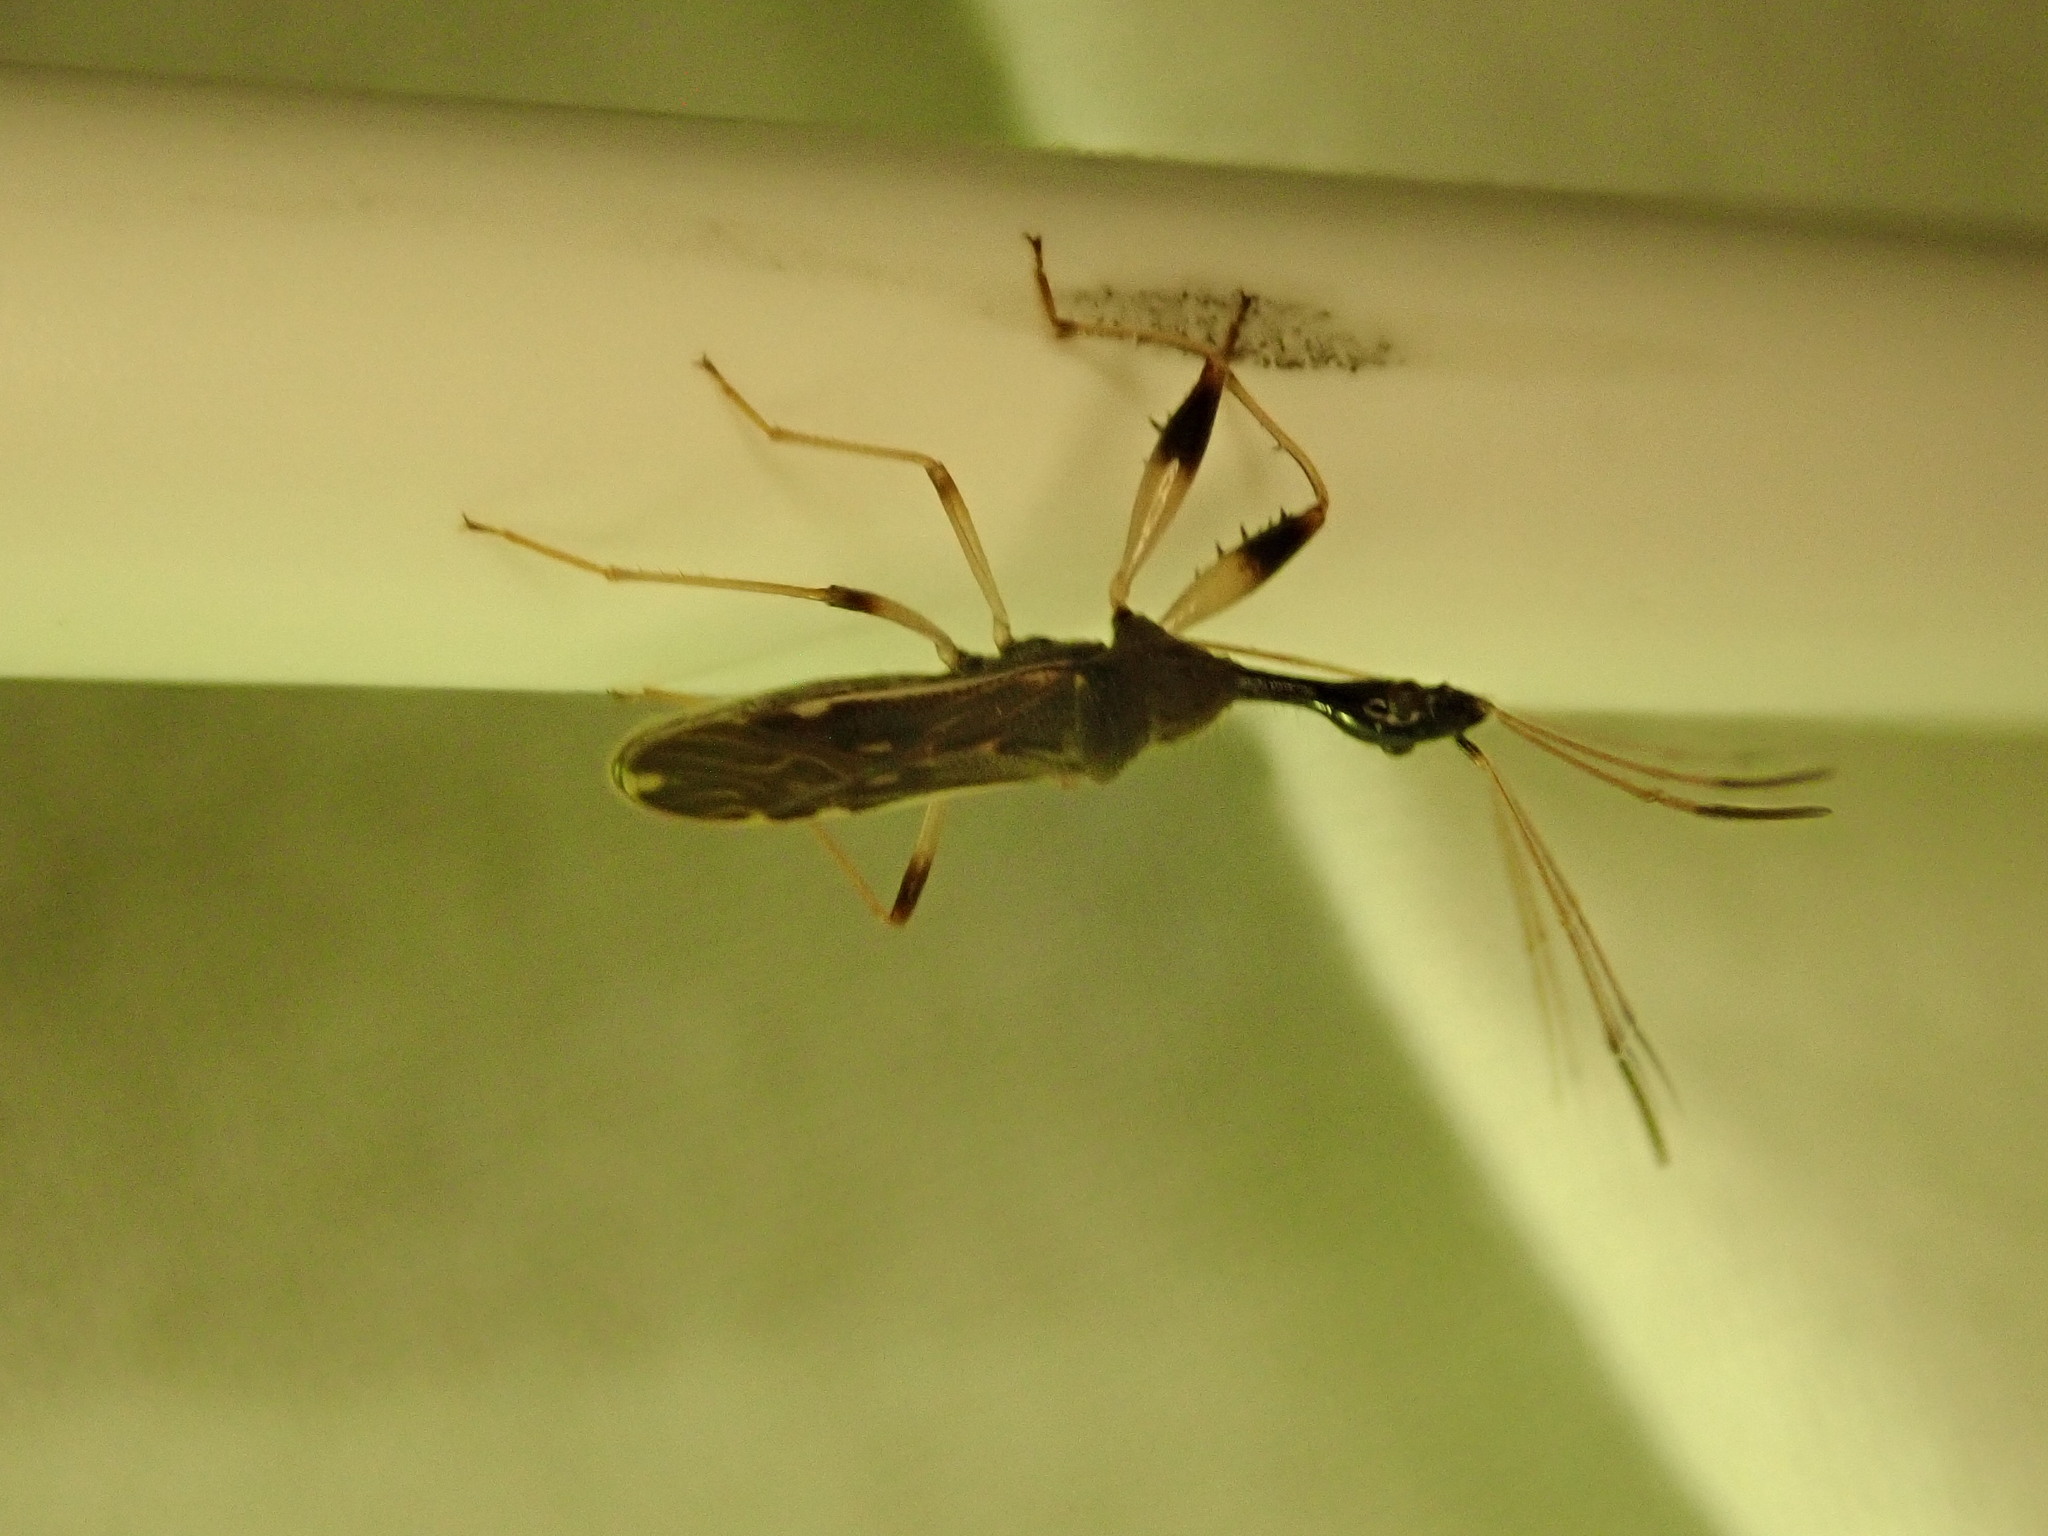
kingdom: Animalia
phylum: Arthropoda
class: Insecta
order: Hemiptera
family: Rhyparochromidae
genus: Myodocha
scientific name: Myodocha serripes
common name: Long-necked seed bug
